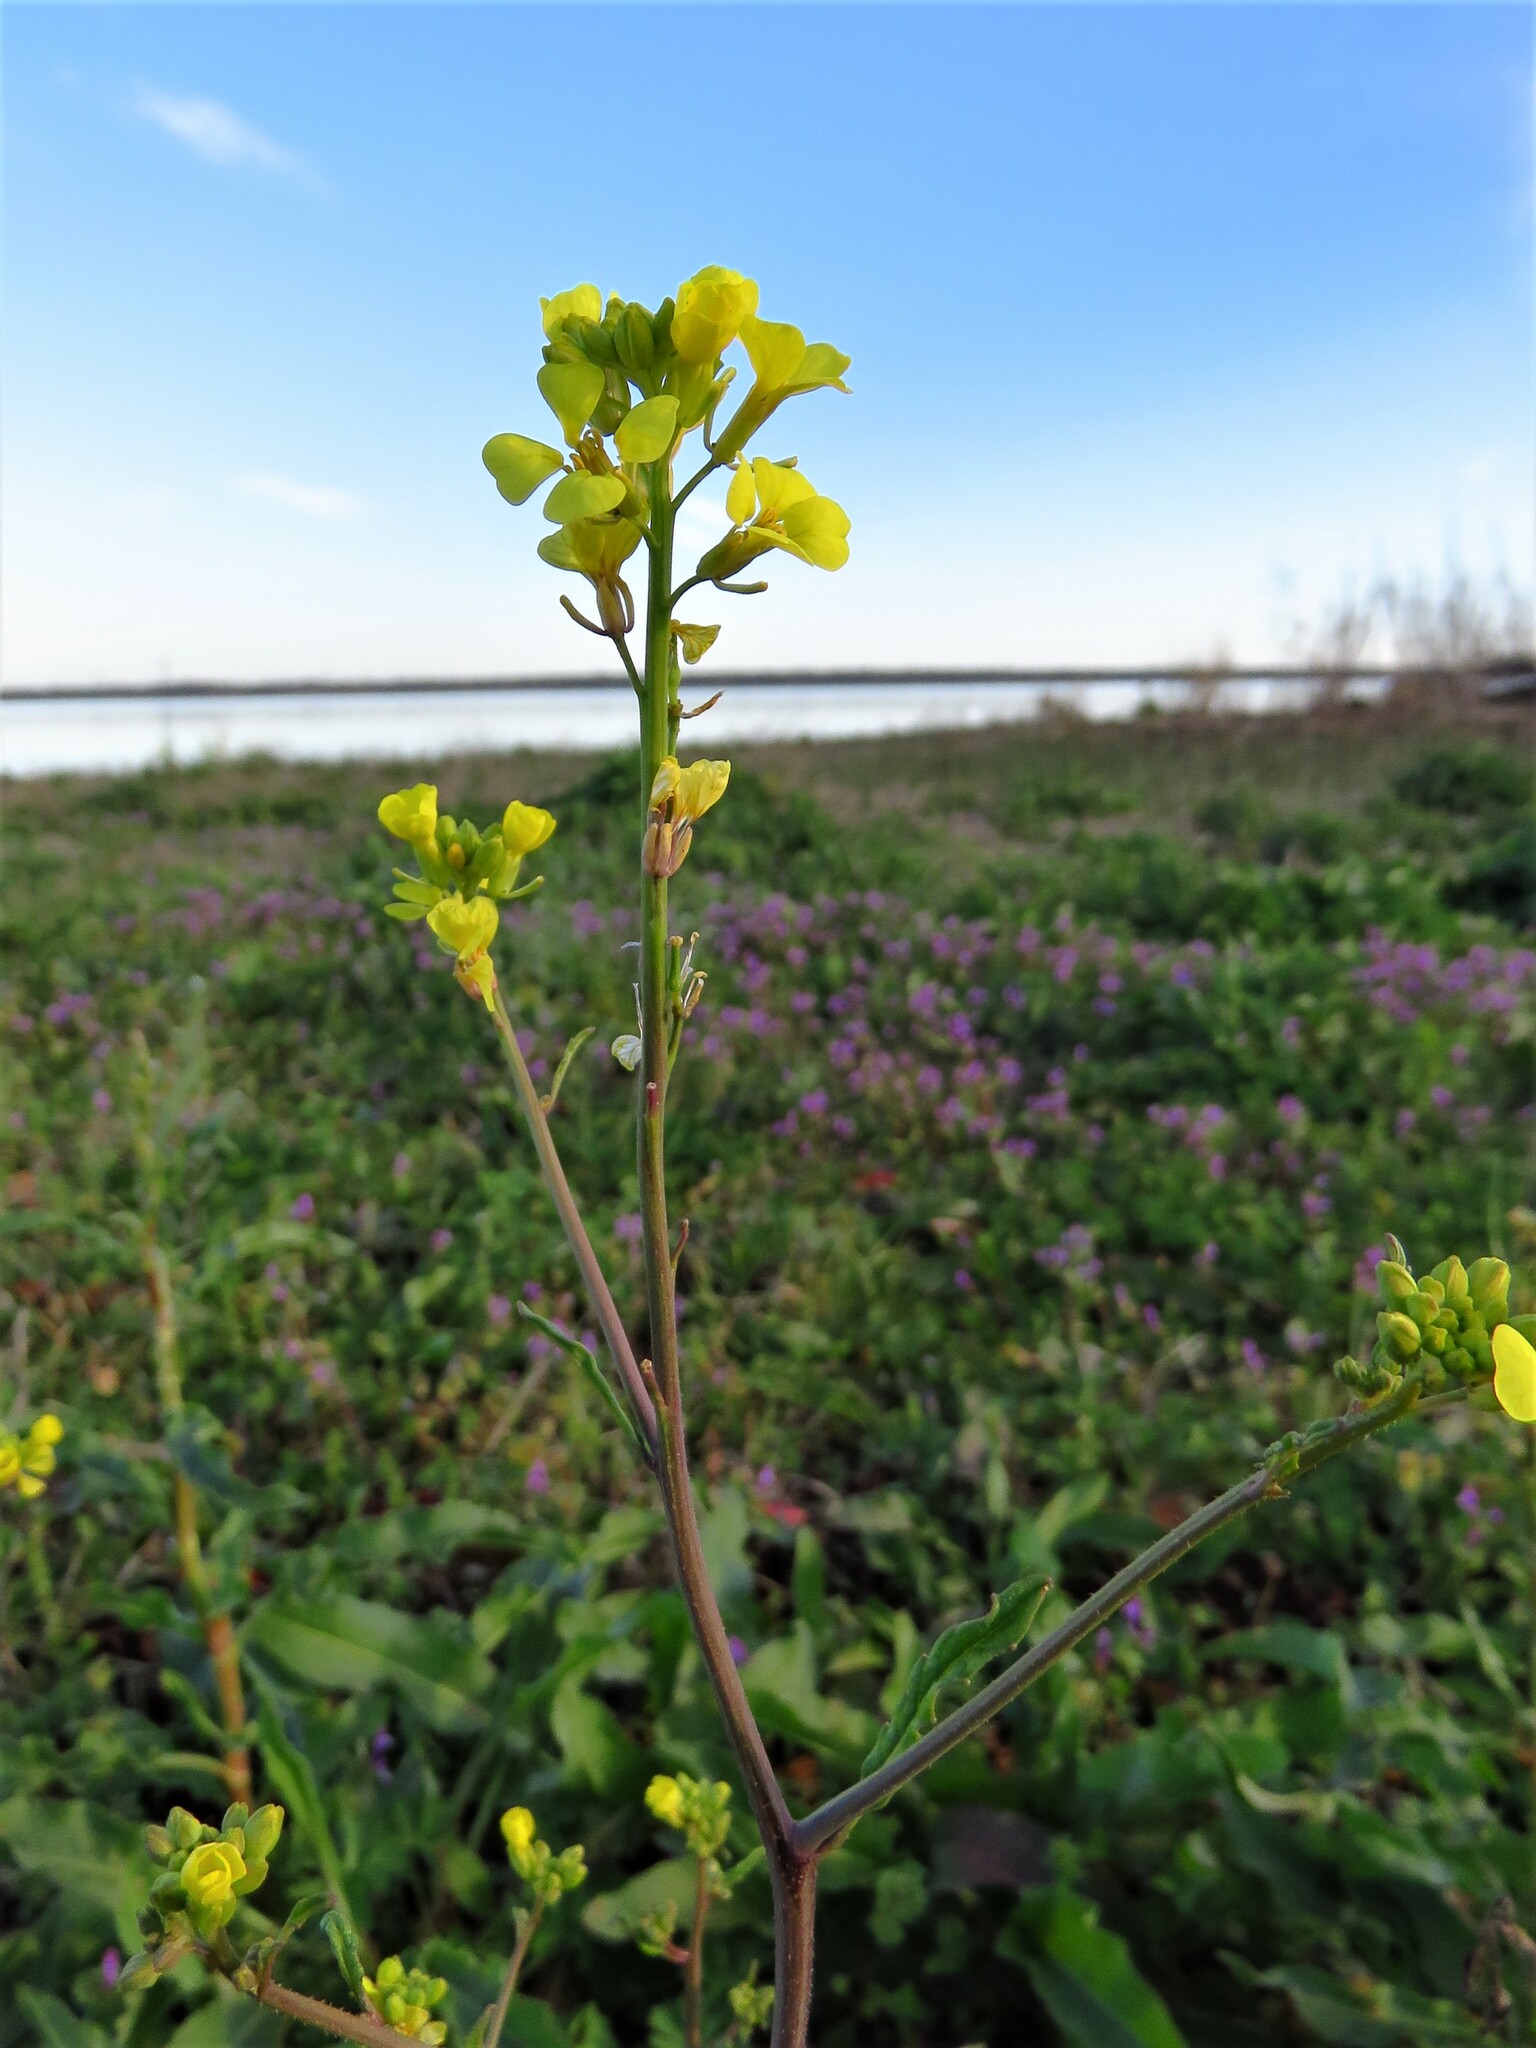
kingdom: Plantae
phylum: Tracheophyta
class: Magnoliopsida
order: Brassicales
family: Brassicaceae
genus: Rapistrum
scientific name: Rapistrum rugosum
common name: Annual bastardcabbage
